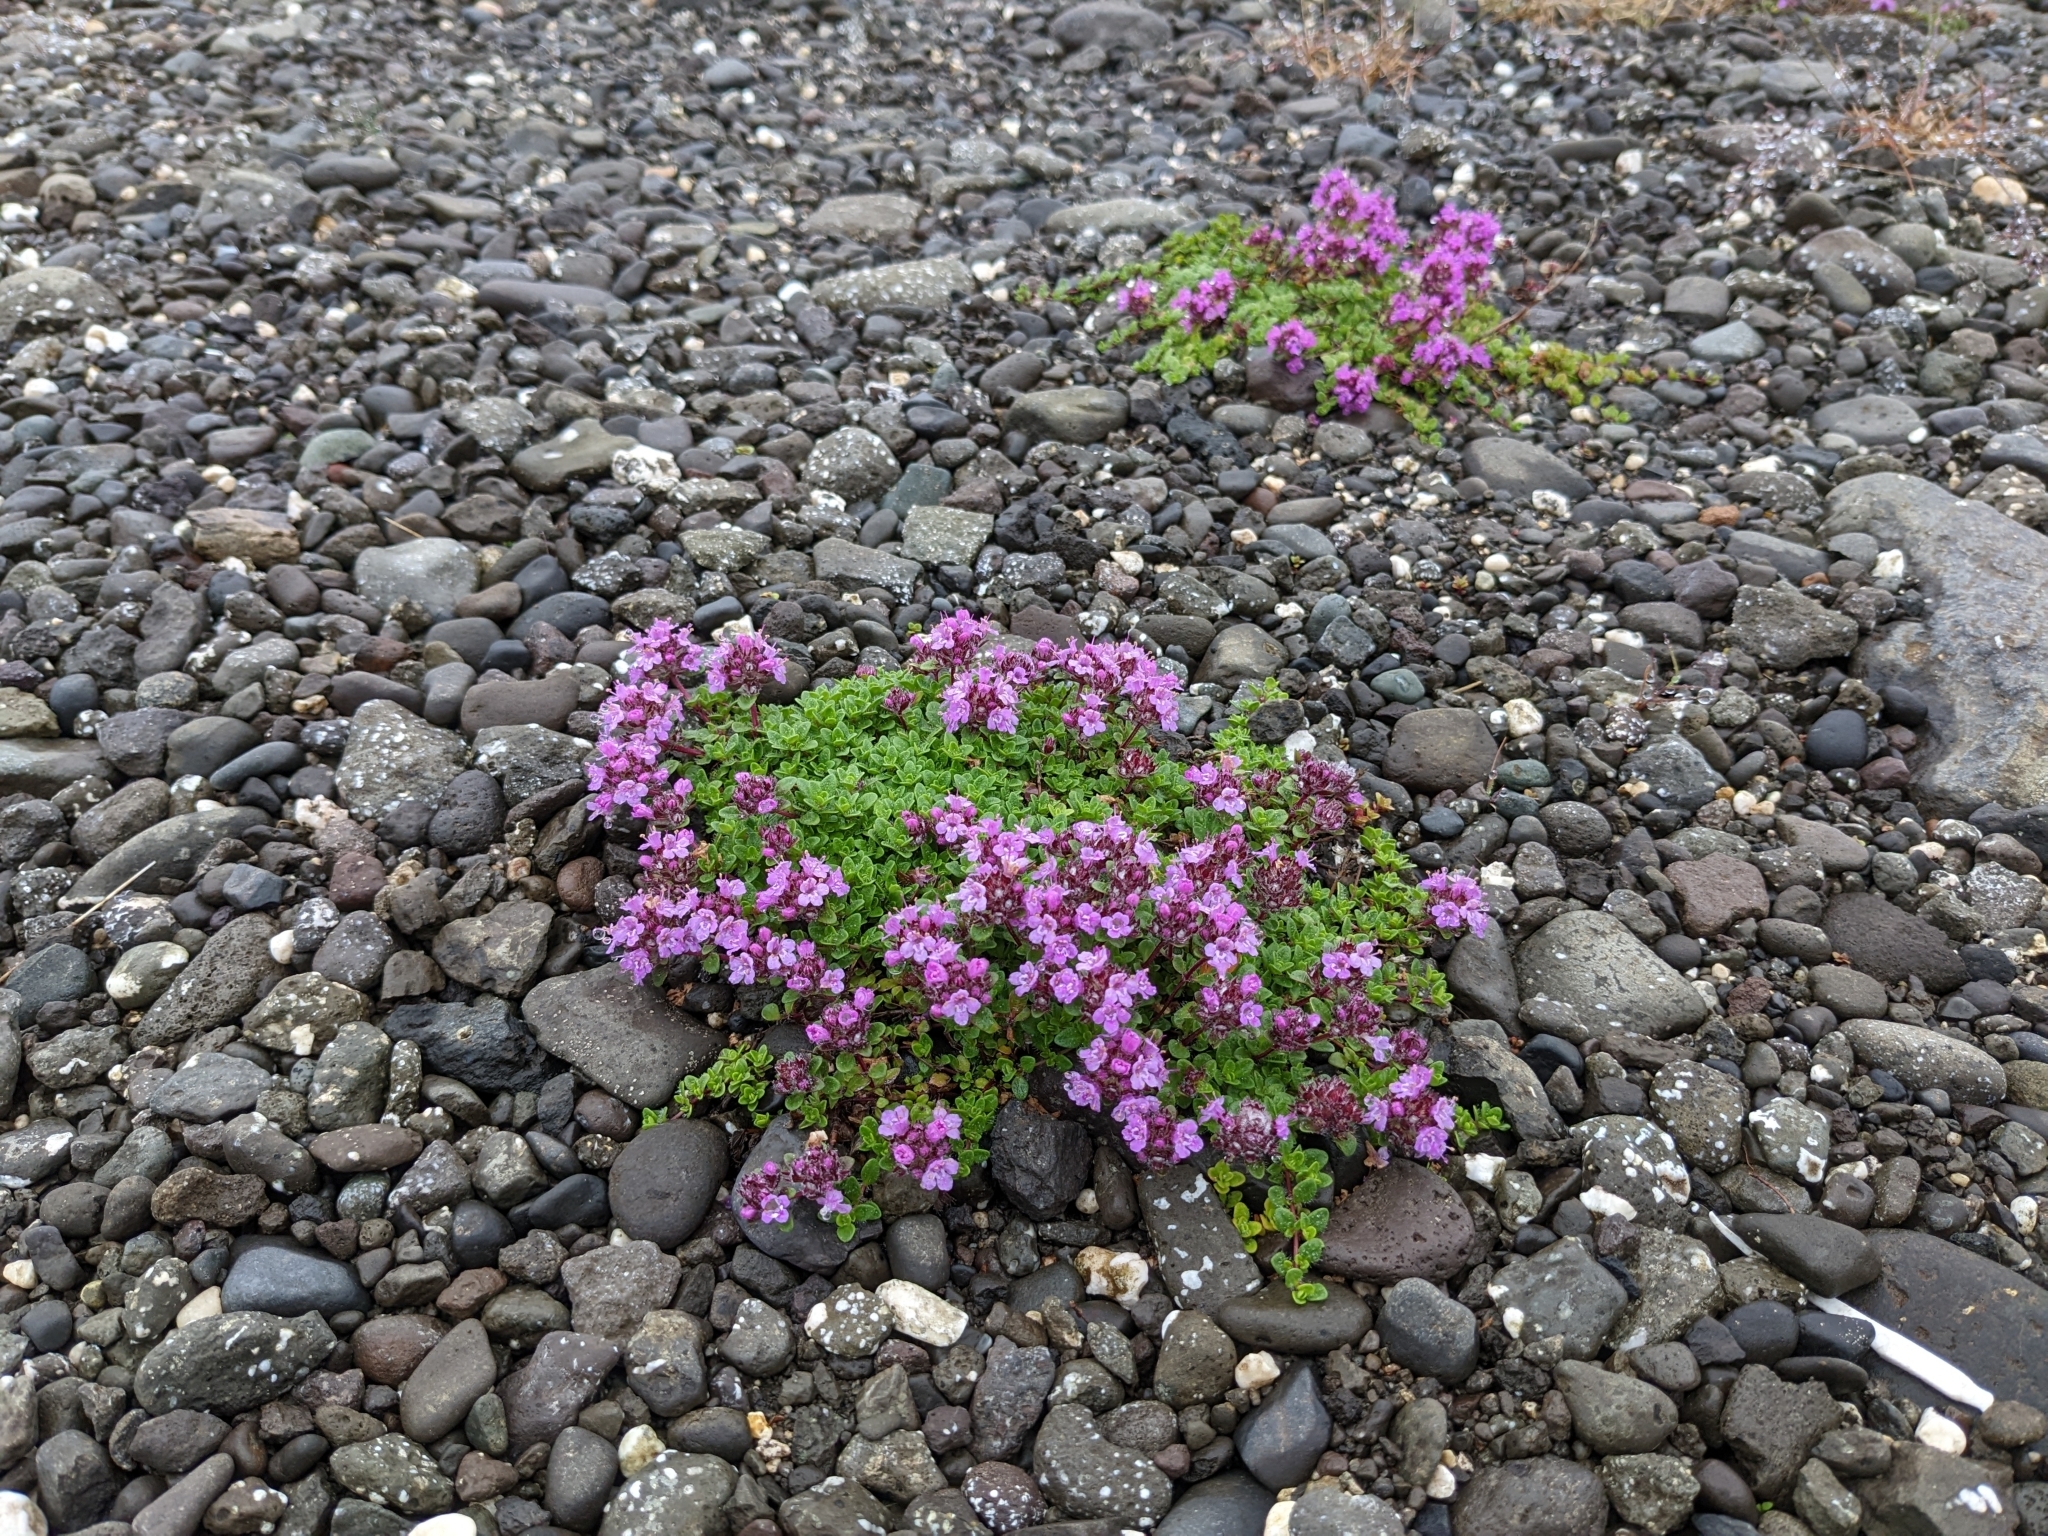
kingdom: Plantae
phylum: Tracheophyta
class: Magnoliopsida
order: Lamiales
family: Lamiaceae
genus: Thymus
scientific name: Thymus praecox
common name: Wild thyme
